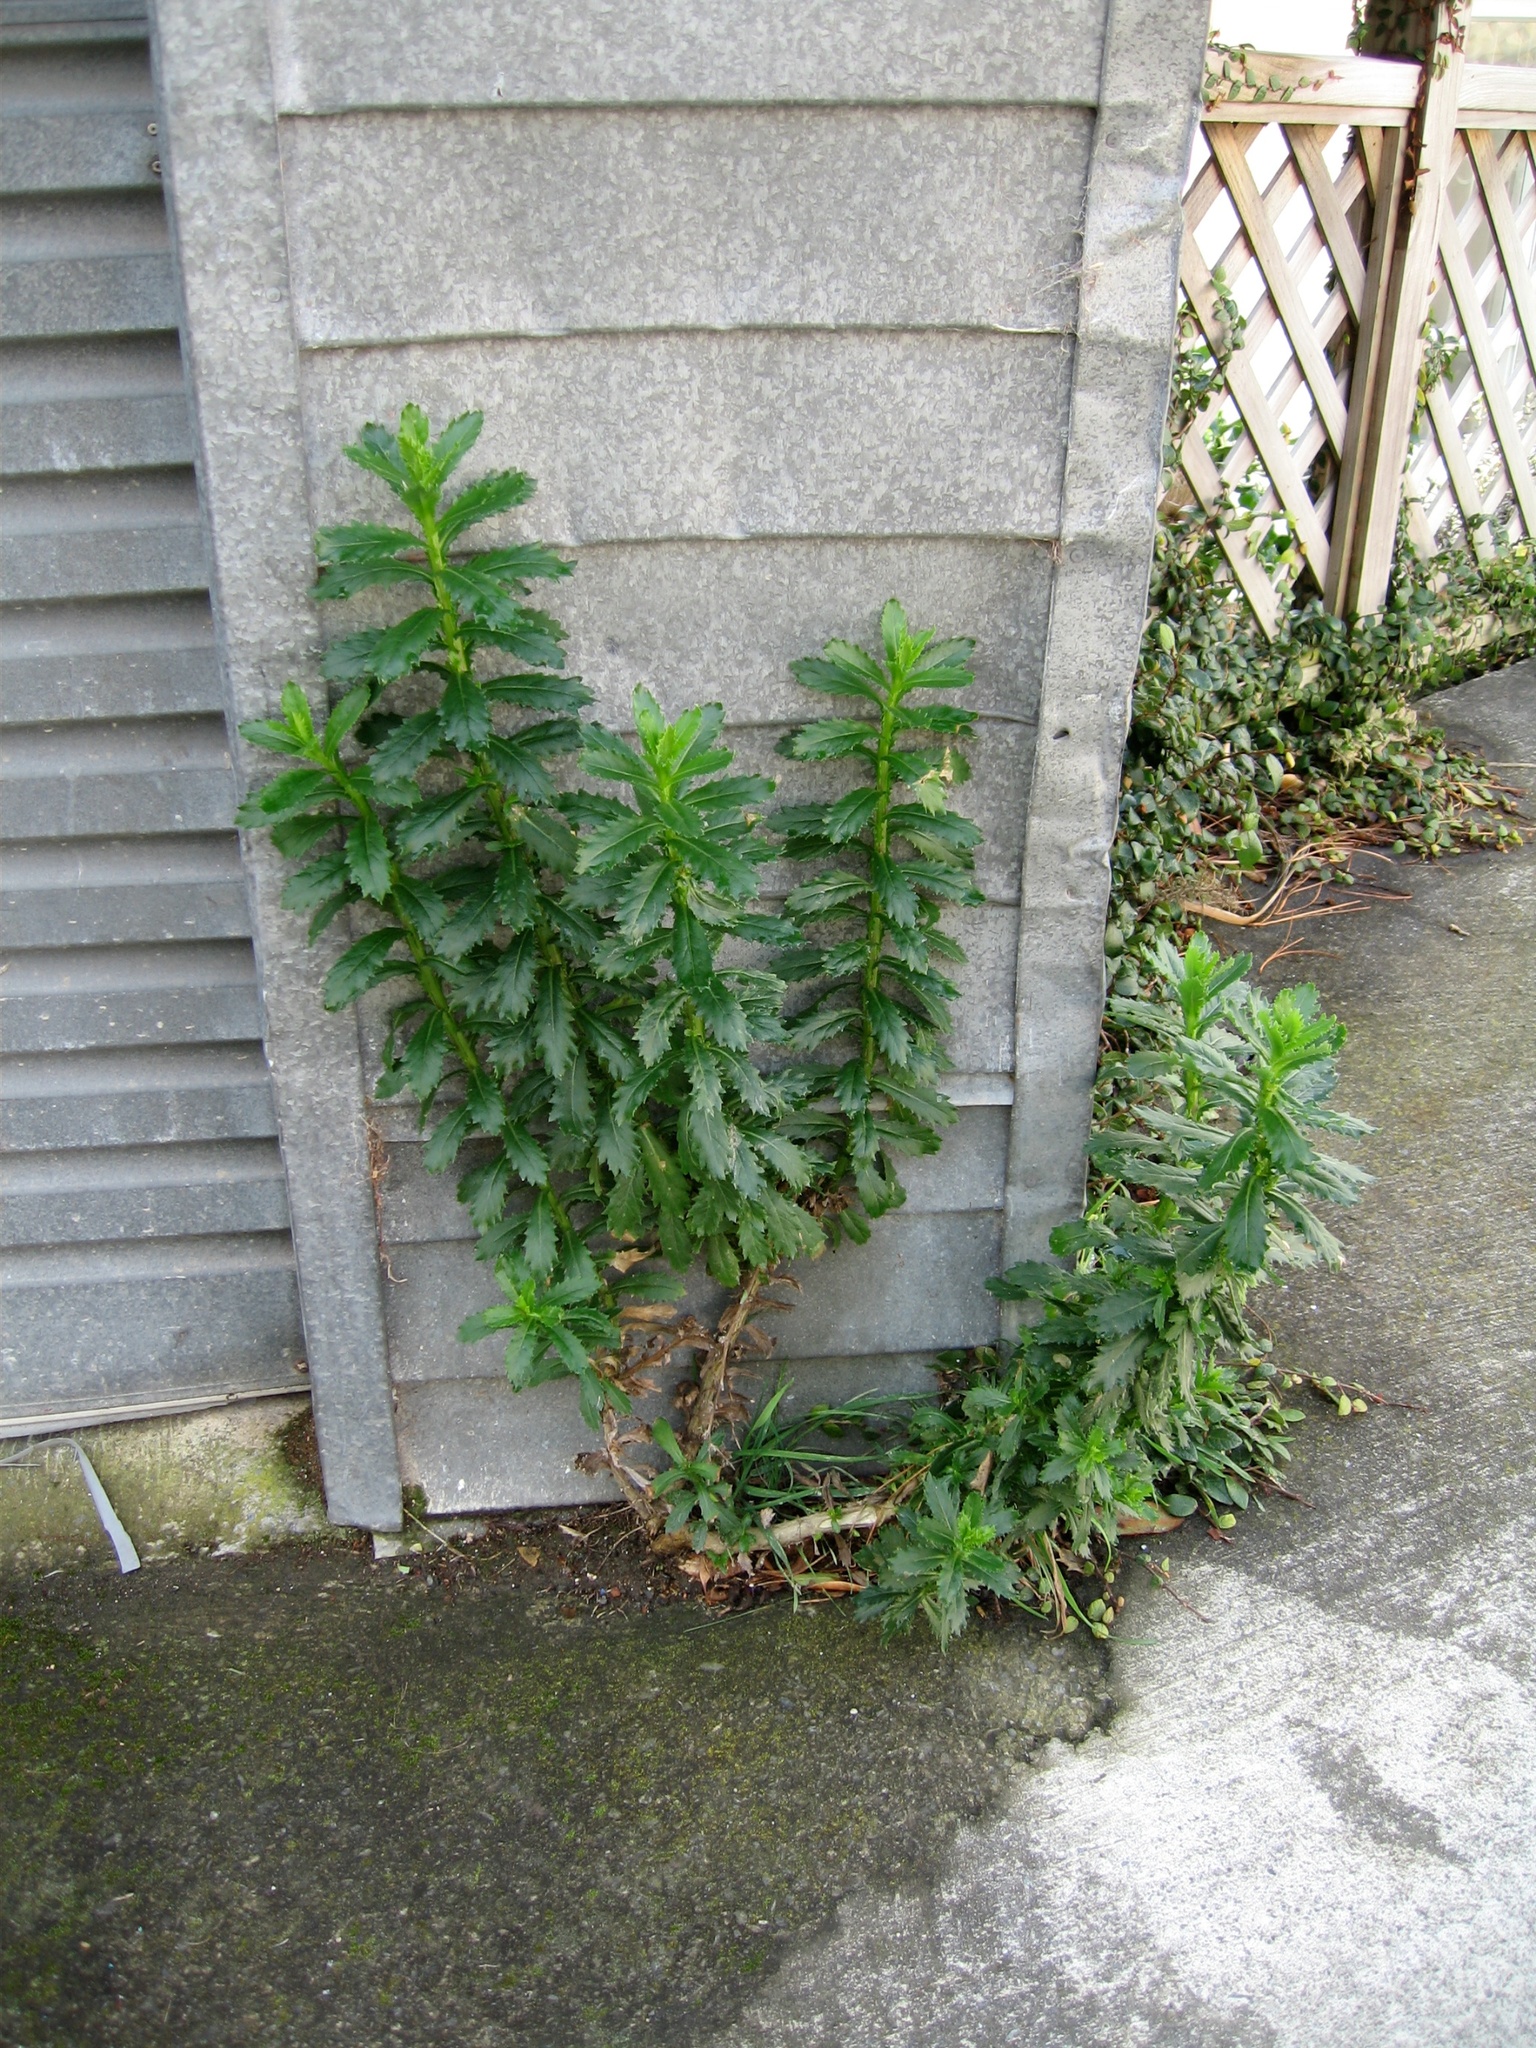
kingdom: Plantae
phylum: Tracheophyta
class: Magnoliopsida
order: Asterales
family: Asteraceae
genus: Senecio
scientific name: Senecio glastifolius
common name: Woad-leaved ragwort
